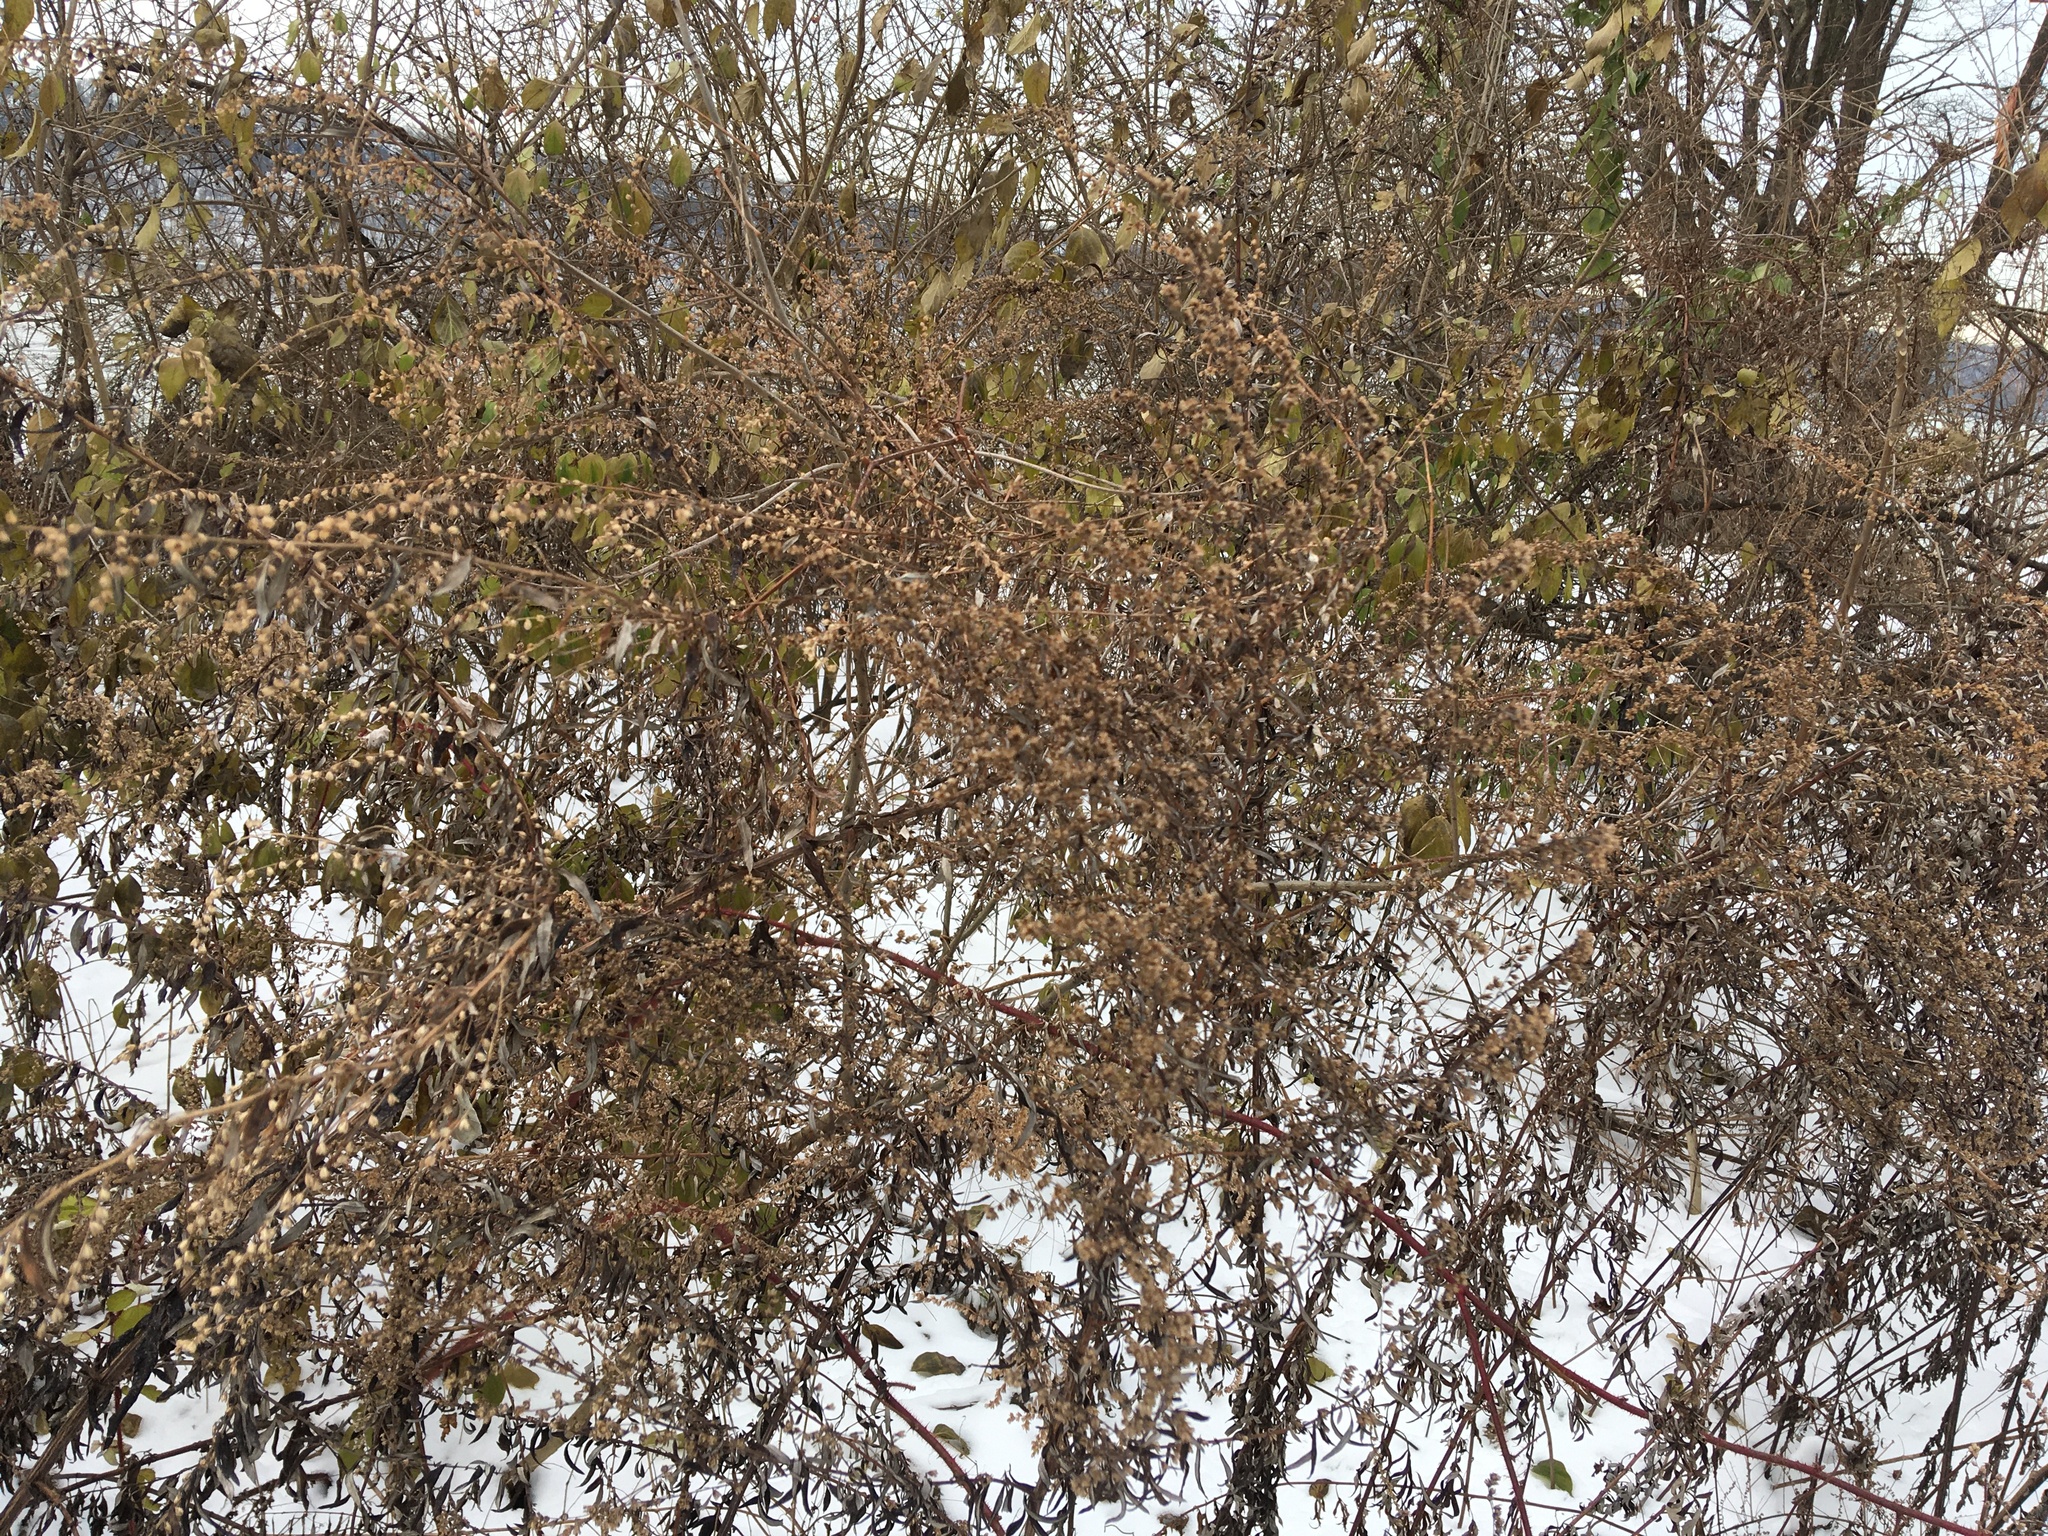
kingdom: Plantae
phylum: Tracheophyta
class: Magnoliopsida
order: Asterales
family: Asteraceae
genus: Artemisia
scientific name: Artemisia vulgaris
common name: Mugwort
